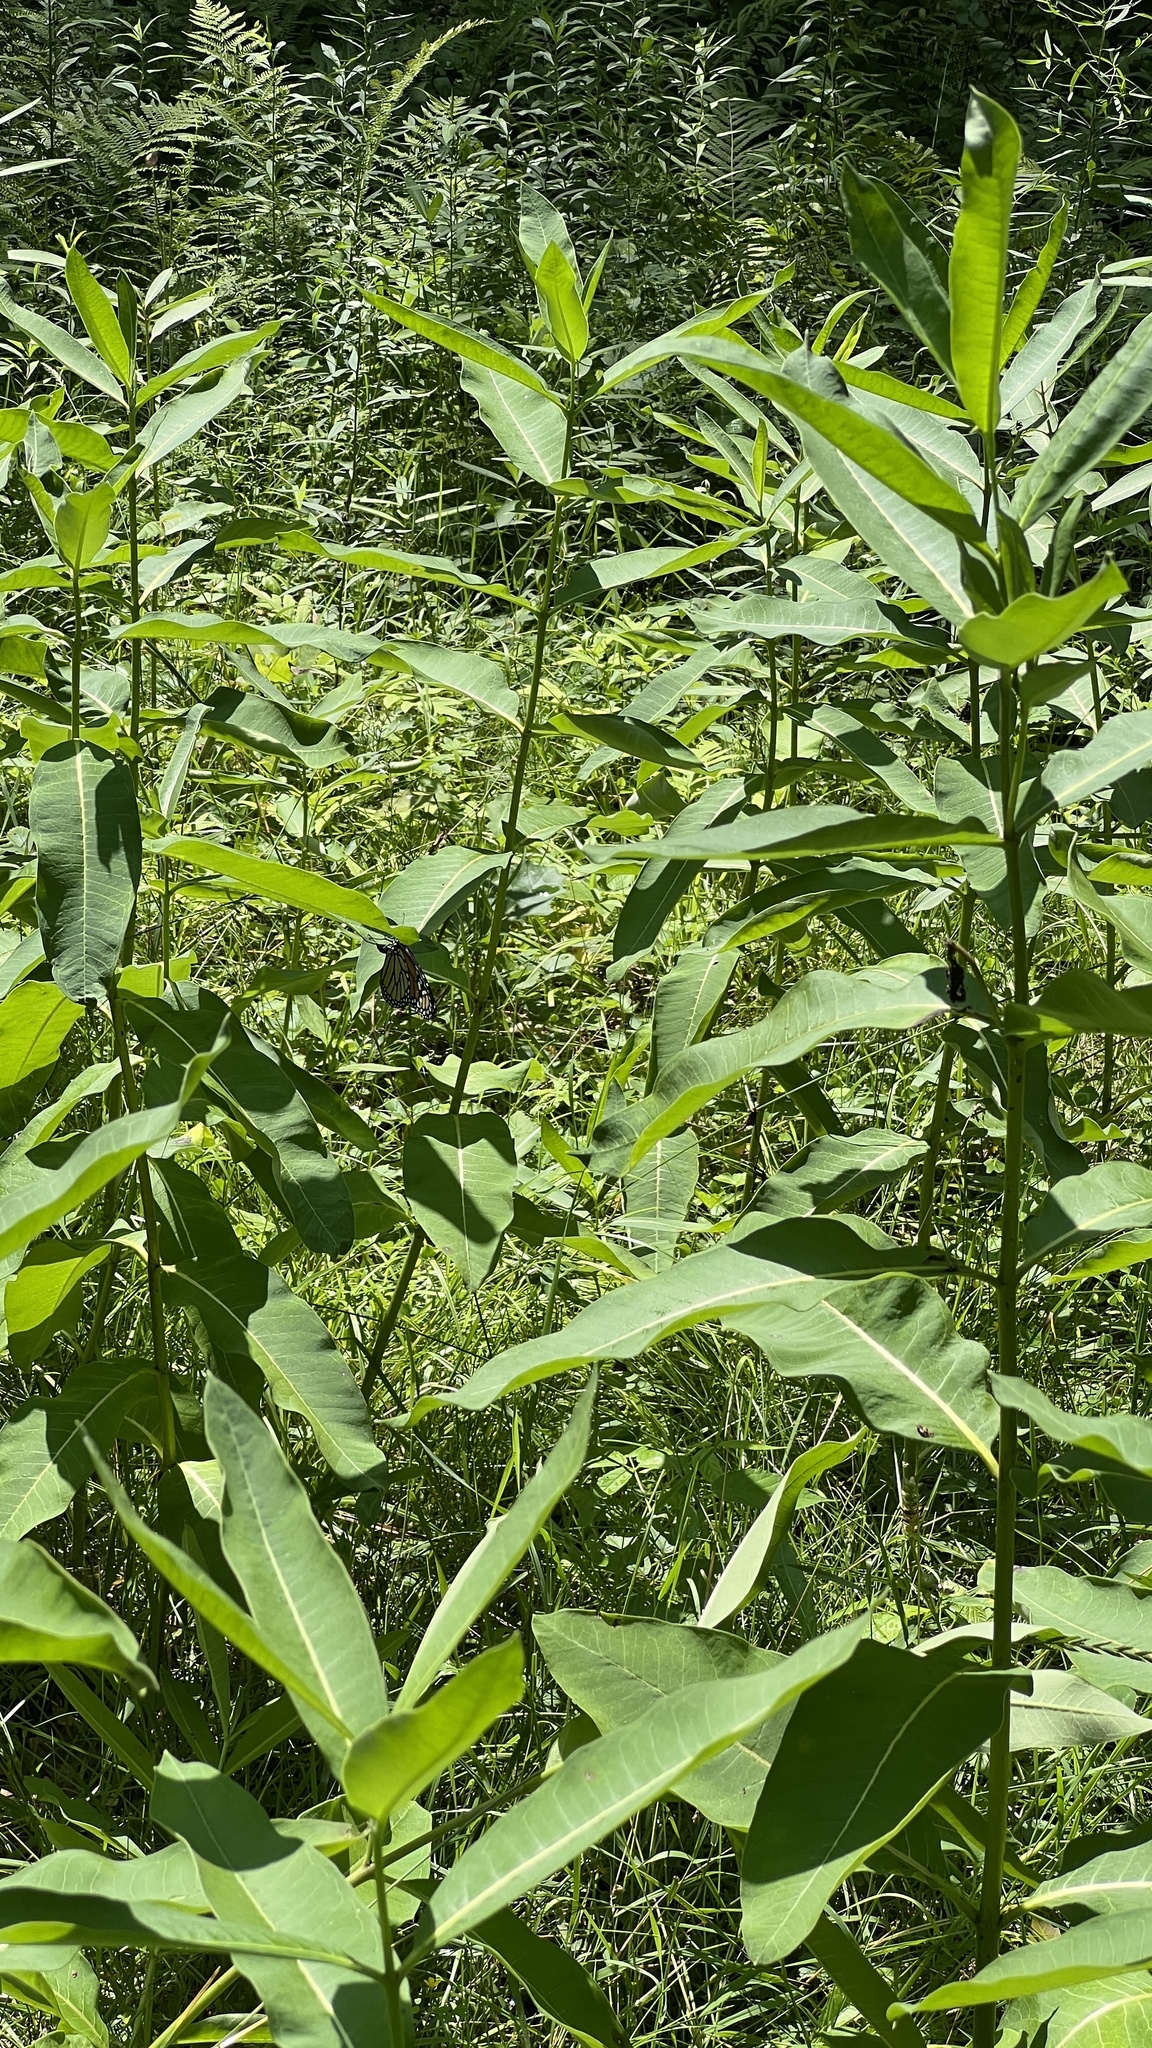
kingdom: Plantae
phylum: Tracheophyta
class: Magnoliopsida
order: Gentianales
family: Apocynaceae
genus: Asclepias
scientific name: Asclepias syriaca
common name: Common milkweed
